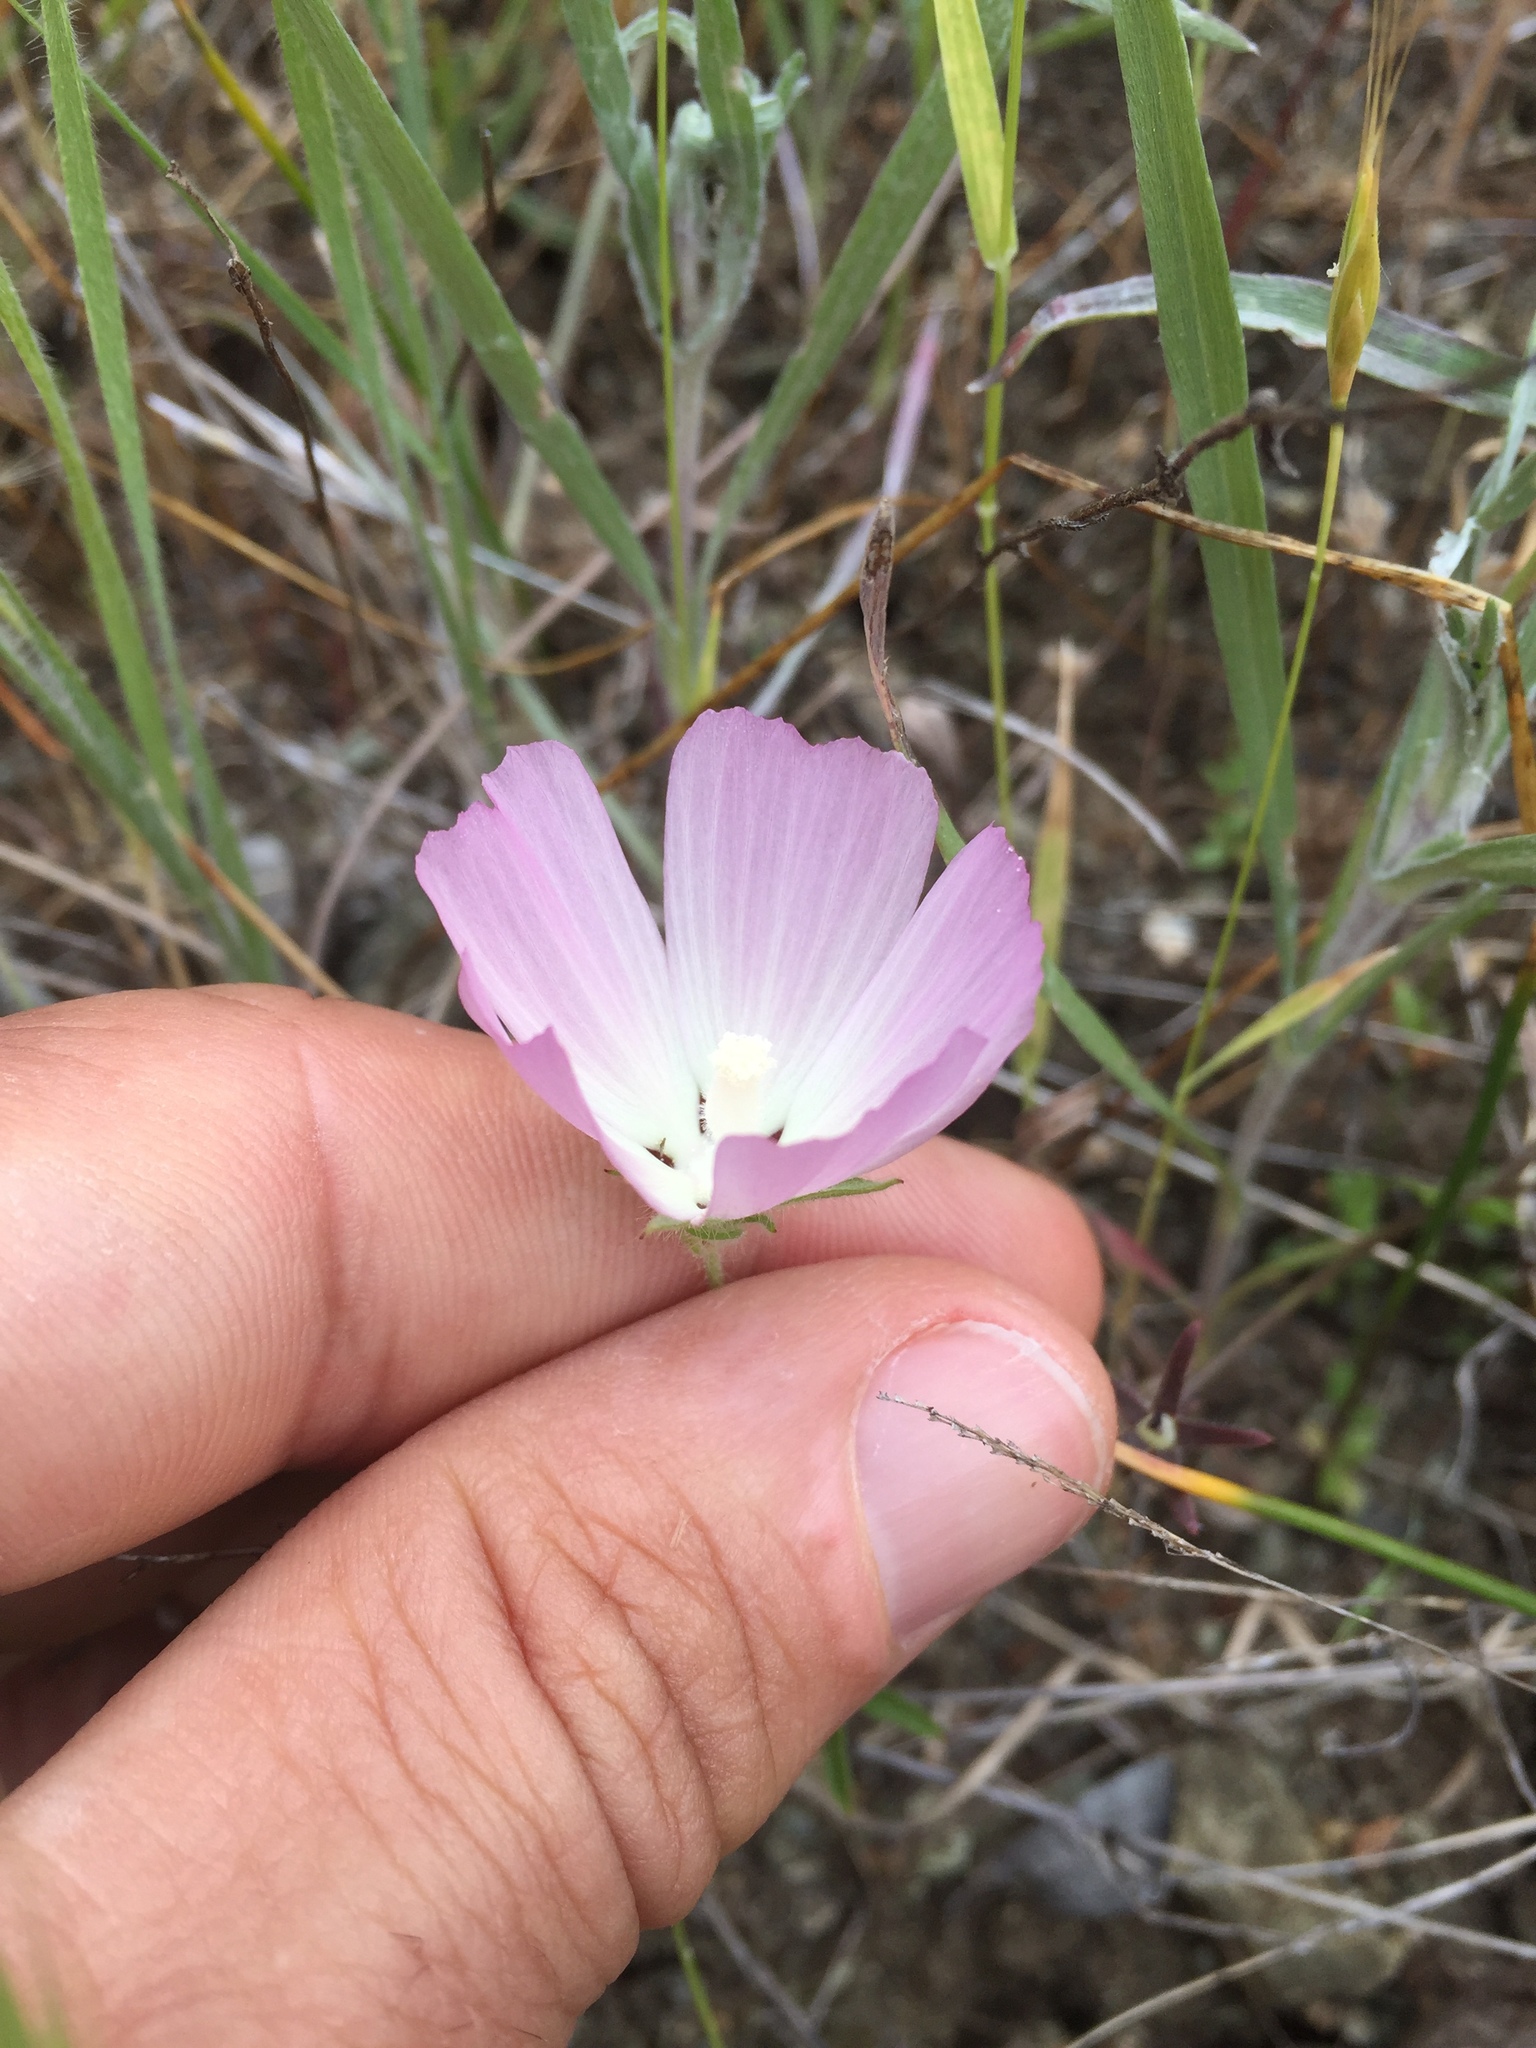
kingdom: Plantae
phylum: Tracheophyta
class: Magnoliopsida
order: Malvales
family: Malvaceae
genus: Sidalcea
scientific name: Sidalcea diploscypha
